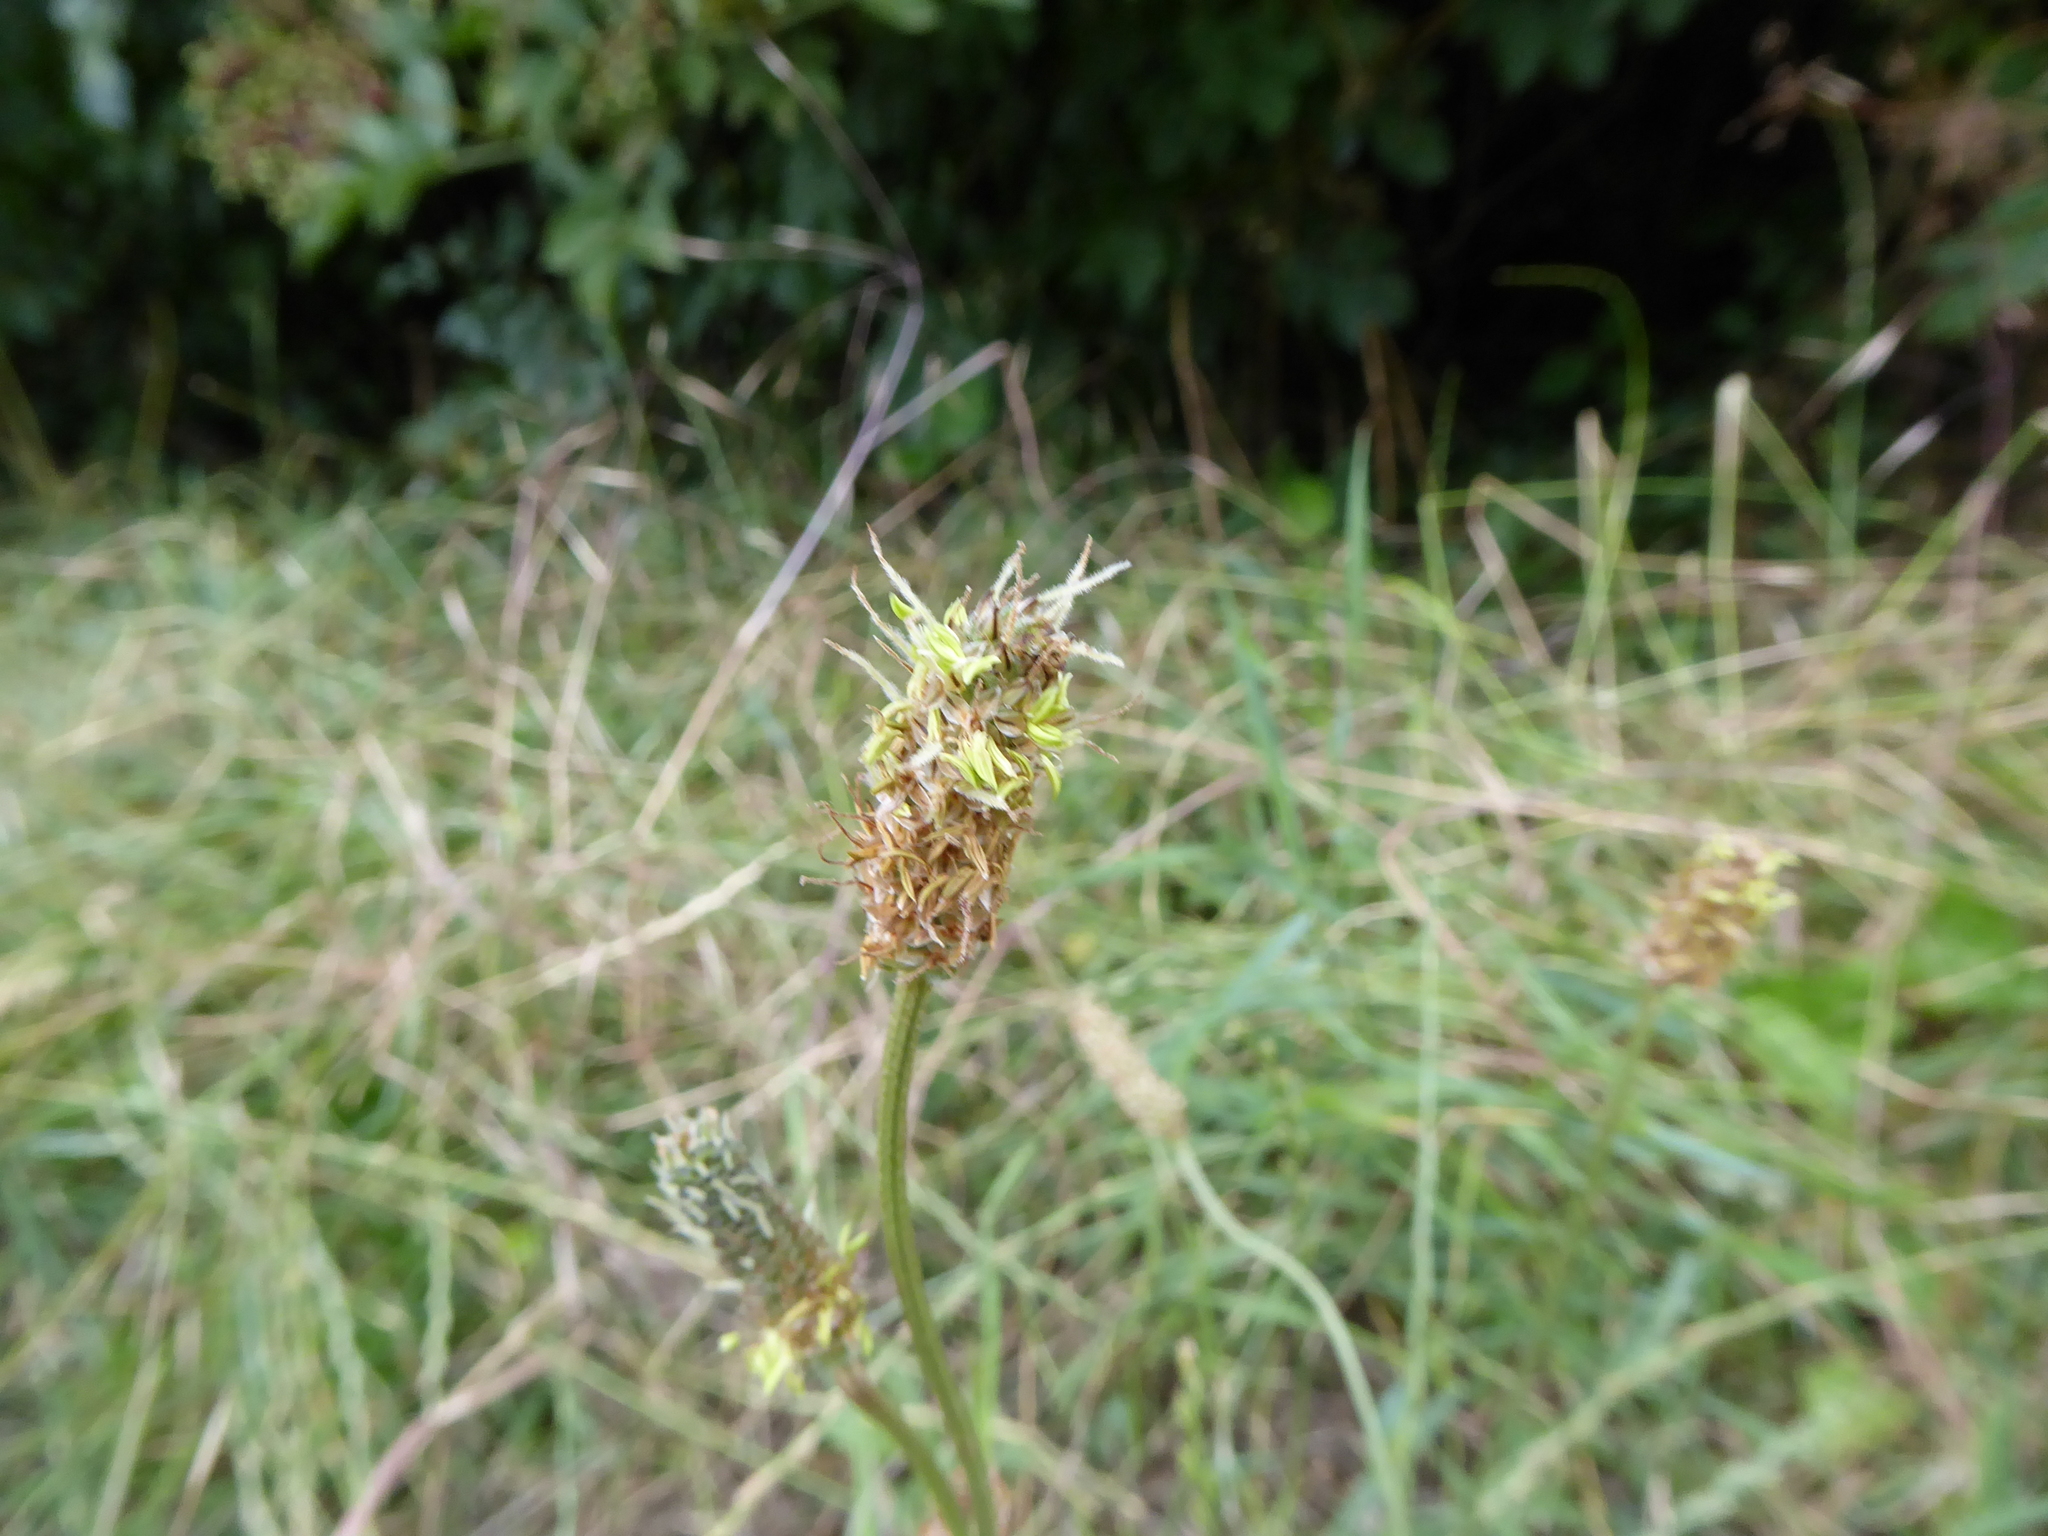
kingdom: Plantae
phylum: Tracheophyta
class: Magnoliopsida
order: Lamiales
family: Plantaginaceae
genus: Plantago
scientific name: Plantago lanceolata
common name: Ribwort plantain
